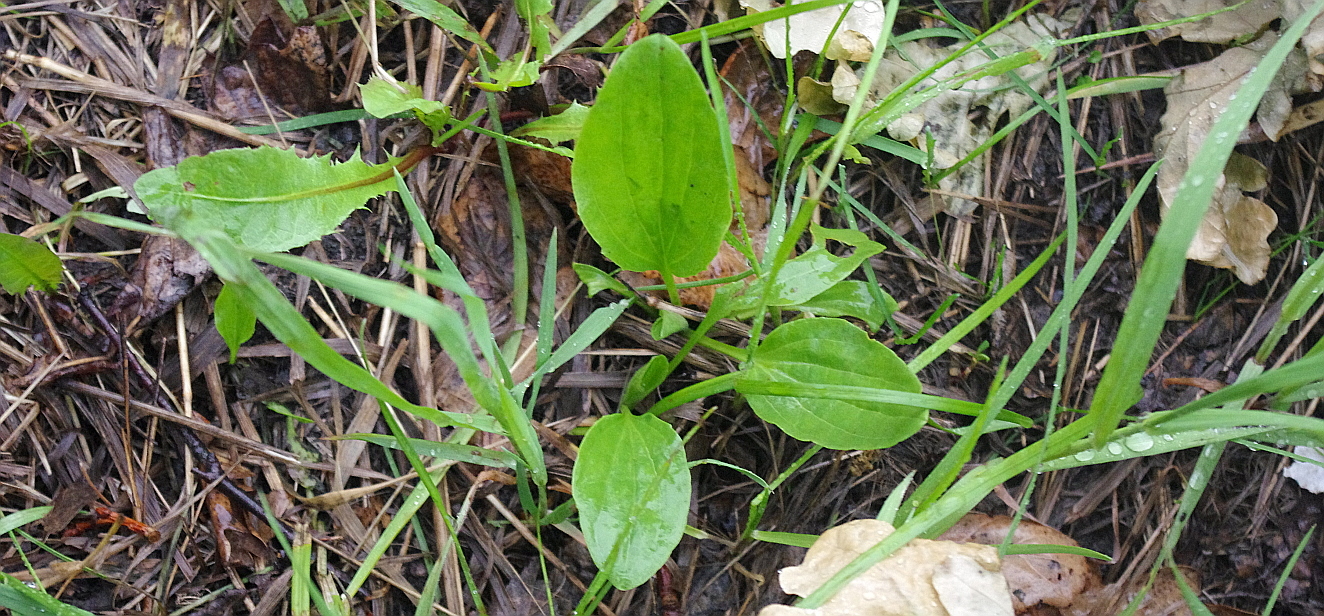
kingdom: Plantae
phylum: Tracheophyta
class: Magnoliopsida
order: Lamiales
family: Plantaginaceae
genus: Plantago
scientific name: Plantago major
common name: Common plantain
